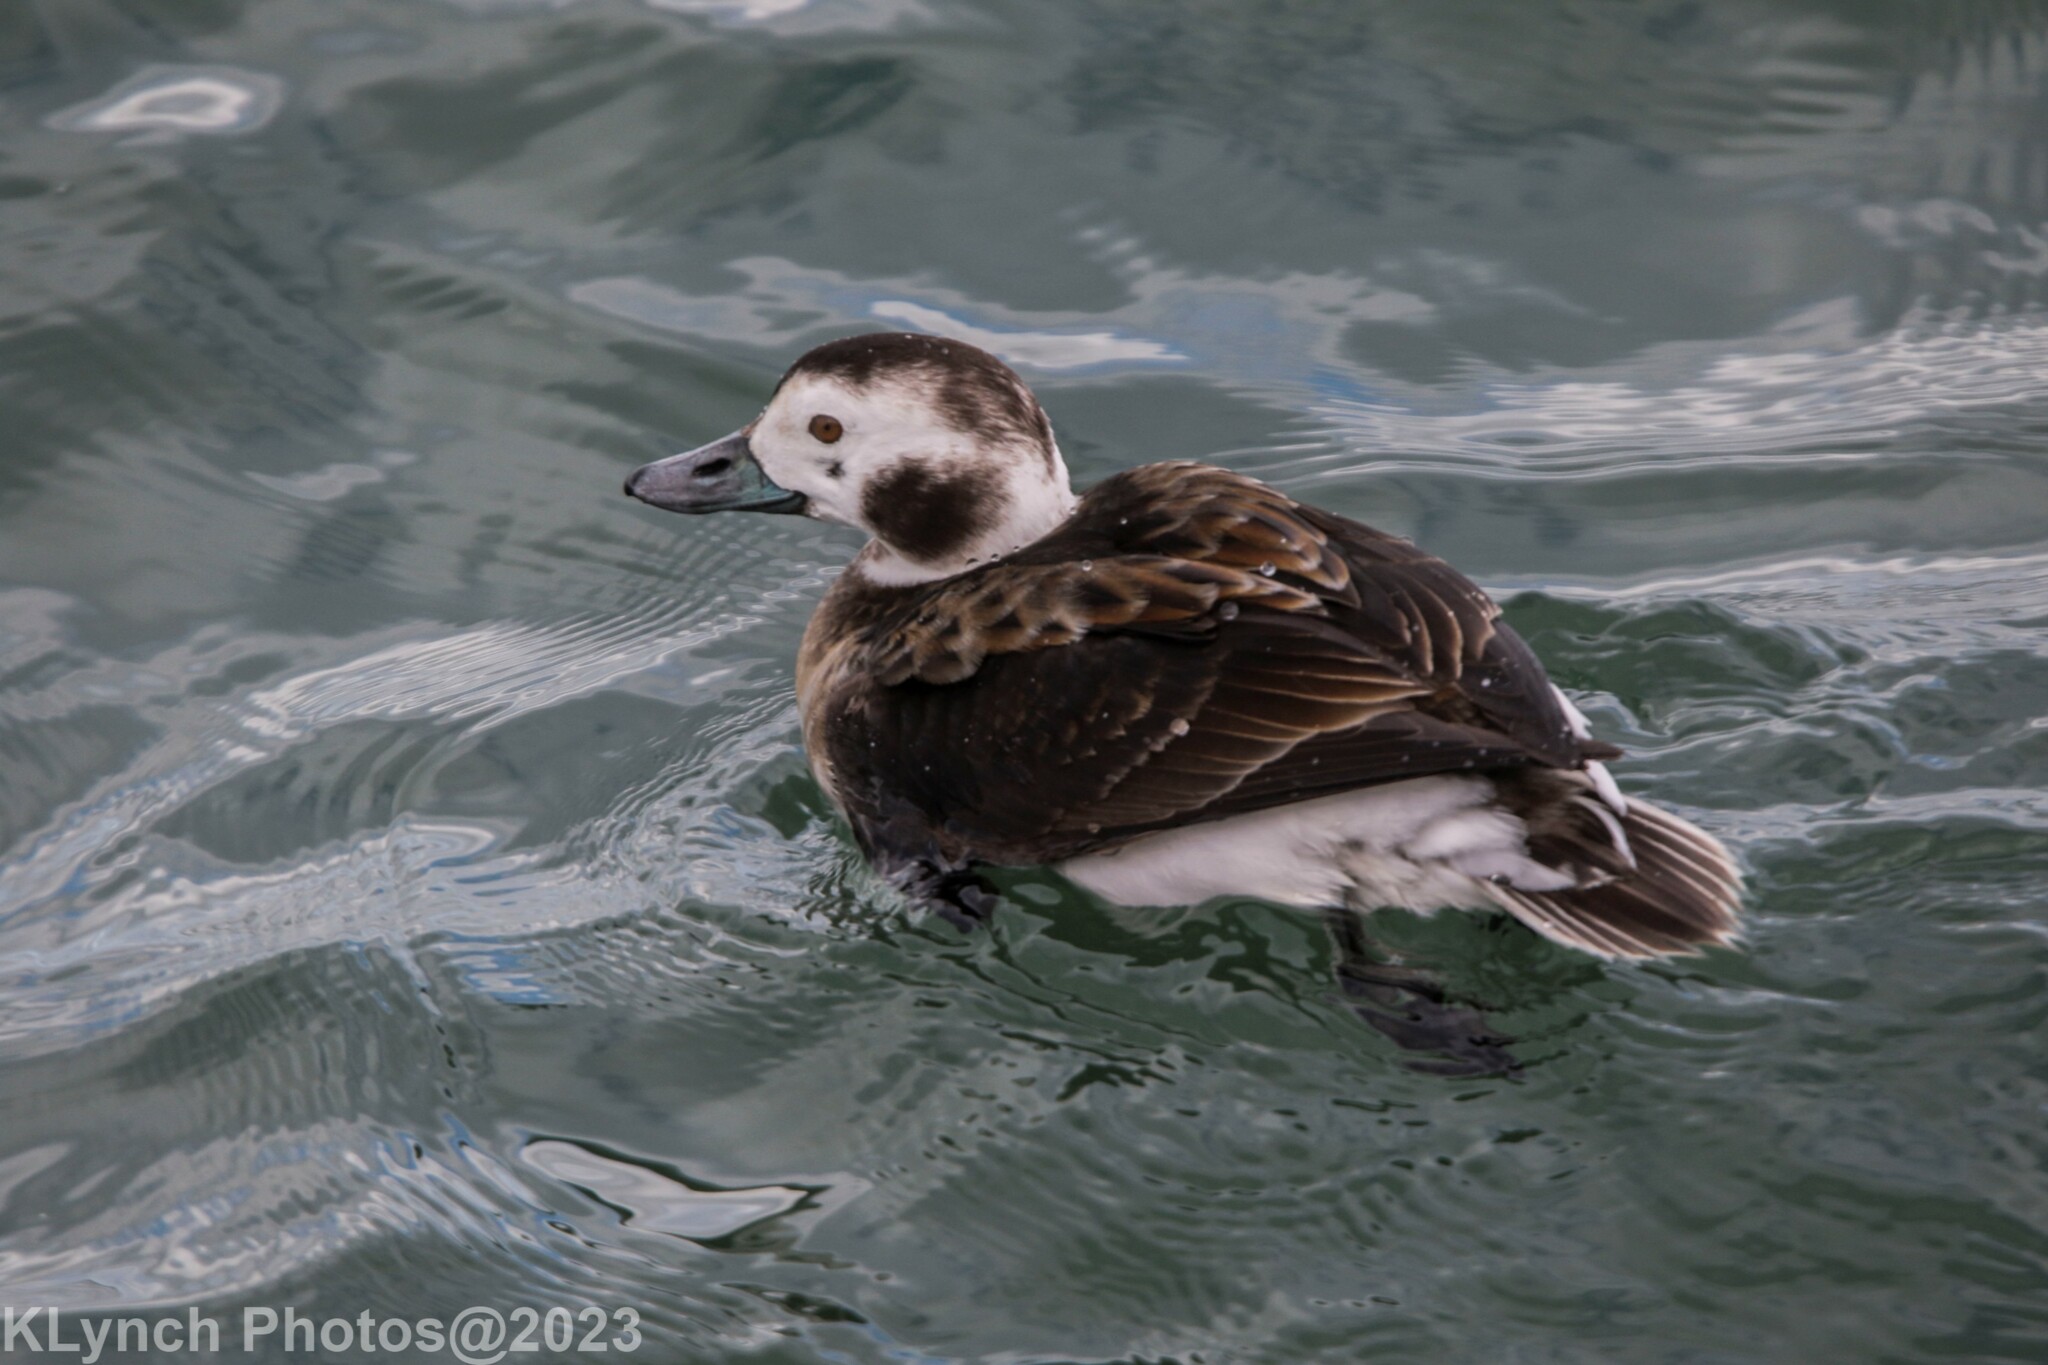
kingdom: Animalia
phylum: Chordata
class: Aves
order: Anseriformes
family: Anatidae
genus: Clangula
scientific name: Clangula hyemalis
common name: Long-tailed duck
